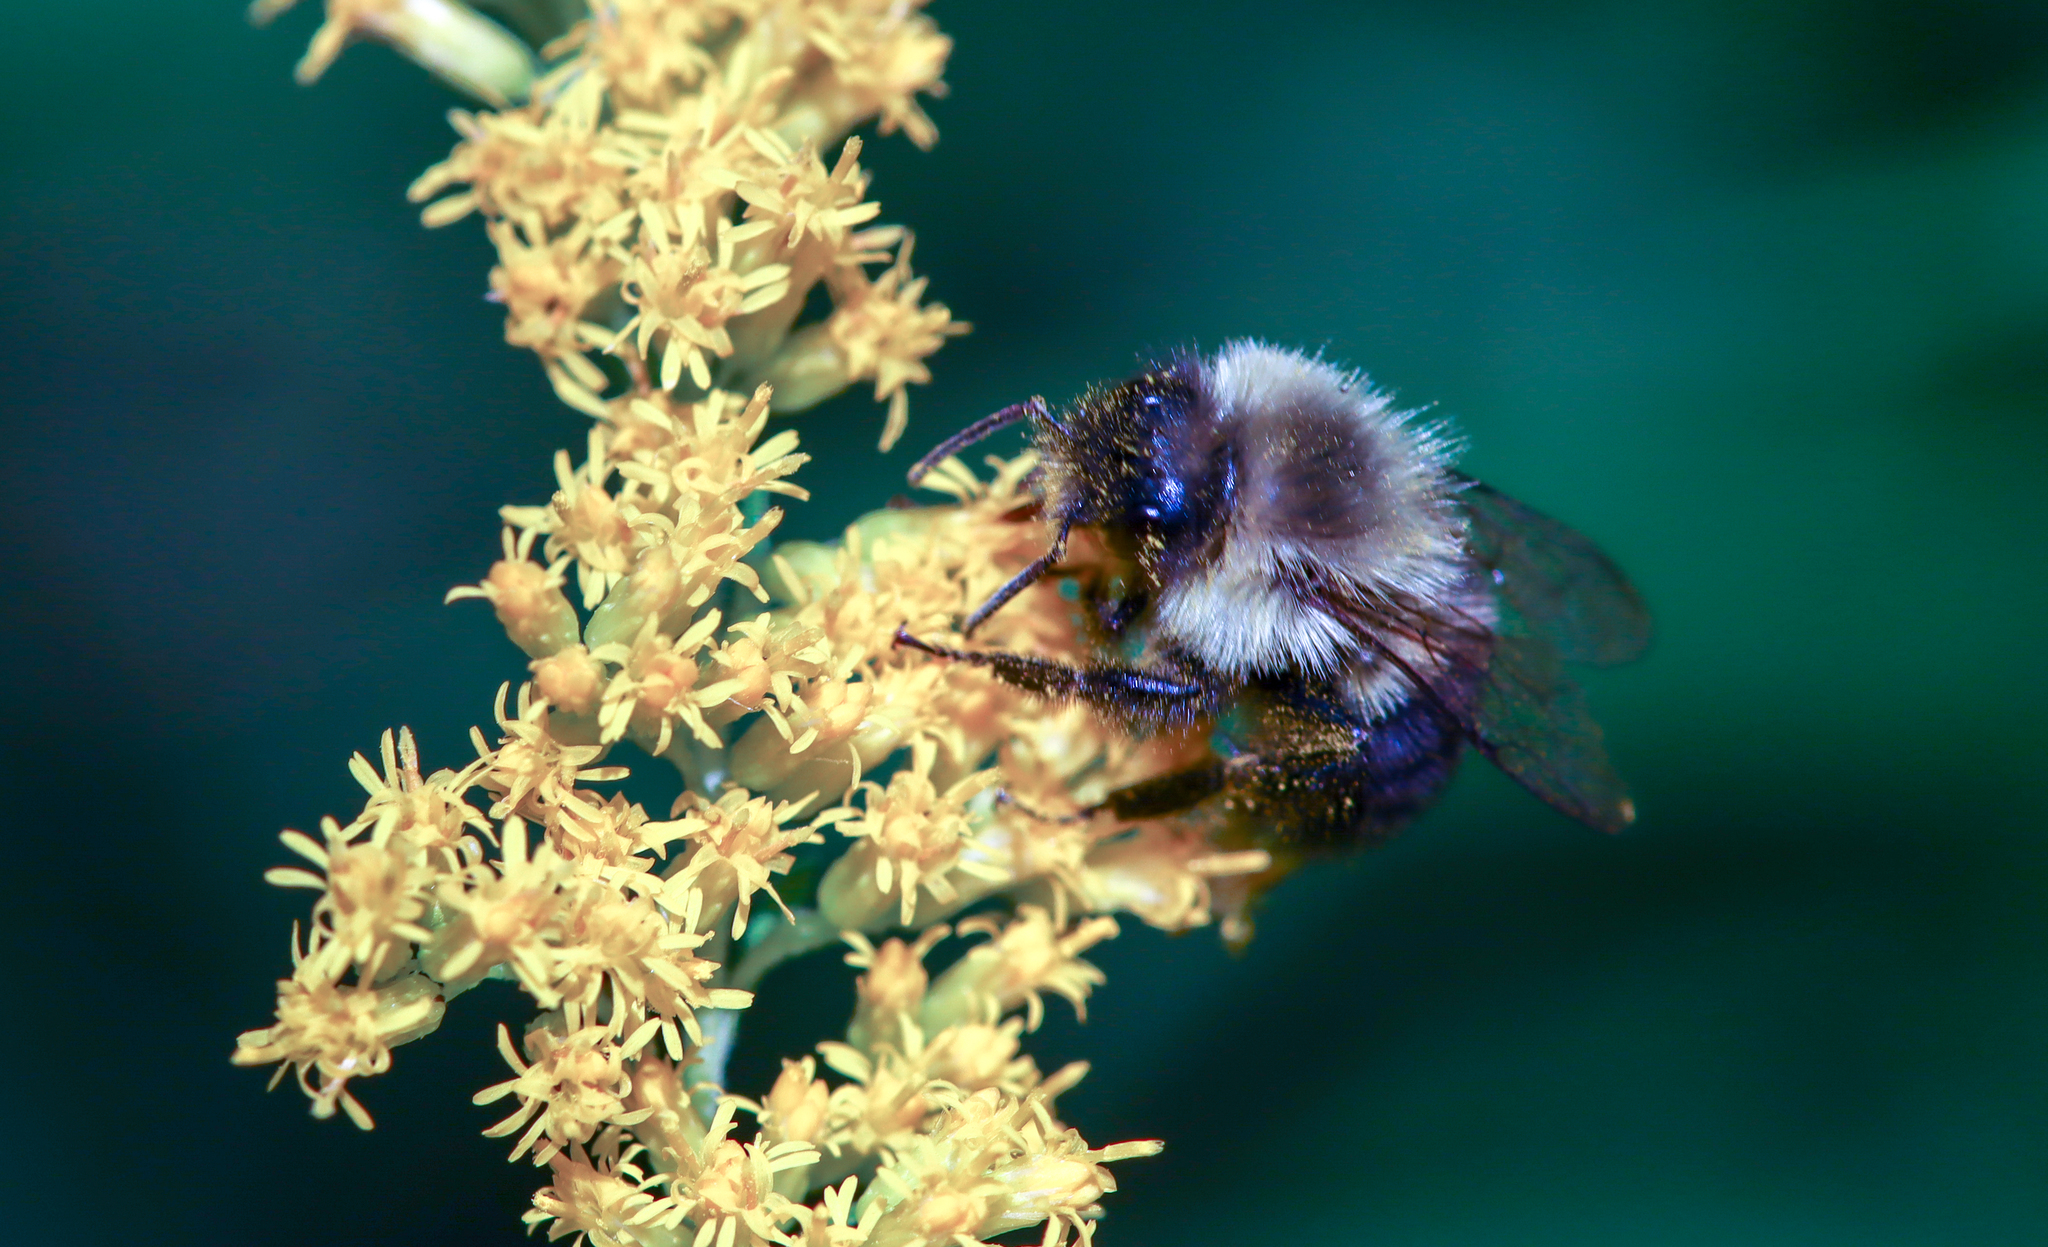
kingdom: Animalia
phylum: Arthropoda
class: Insecta
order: Hymenoptera
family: Apidae
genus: Bombus
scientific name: Bombus impatiens
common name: Common eastern bumble bee
